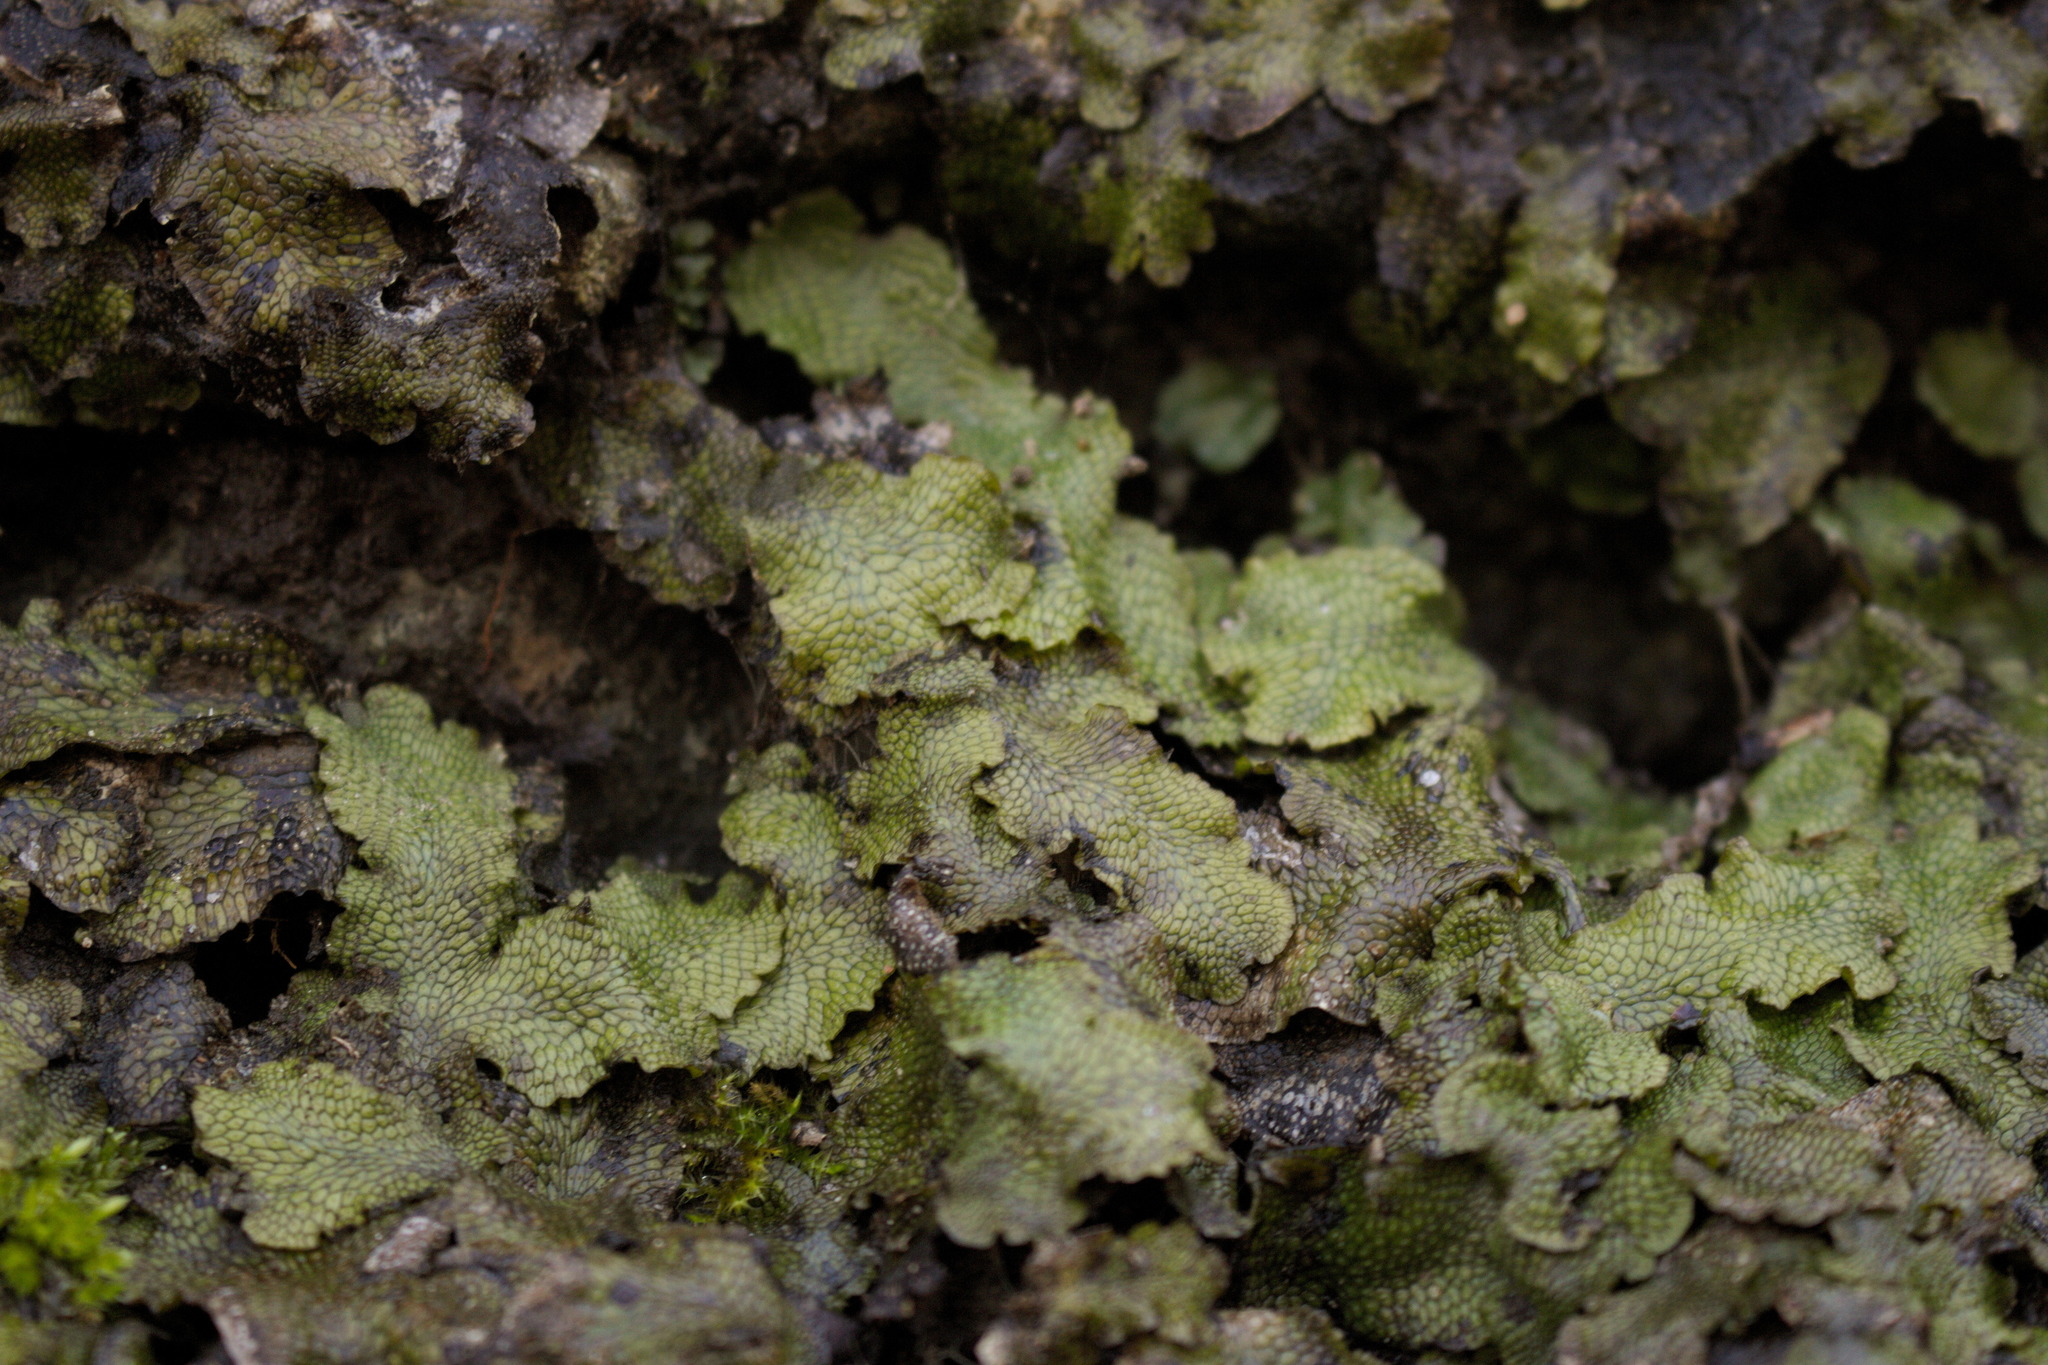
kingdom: Plantae
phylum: Marchantiophyta
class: Marchantiopsida
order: Marchantiales
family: Conocephalaceae
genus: Conocephalum
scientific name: Conocephalum salebrosum
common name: Cat-tongue liverwort
